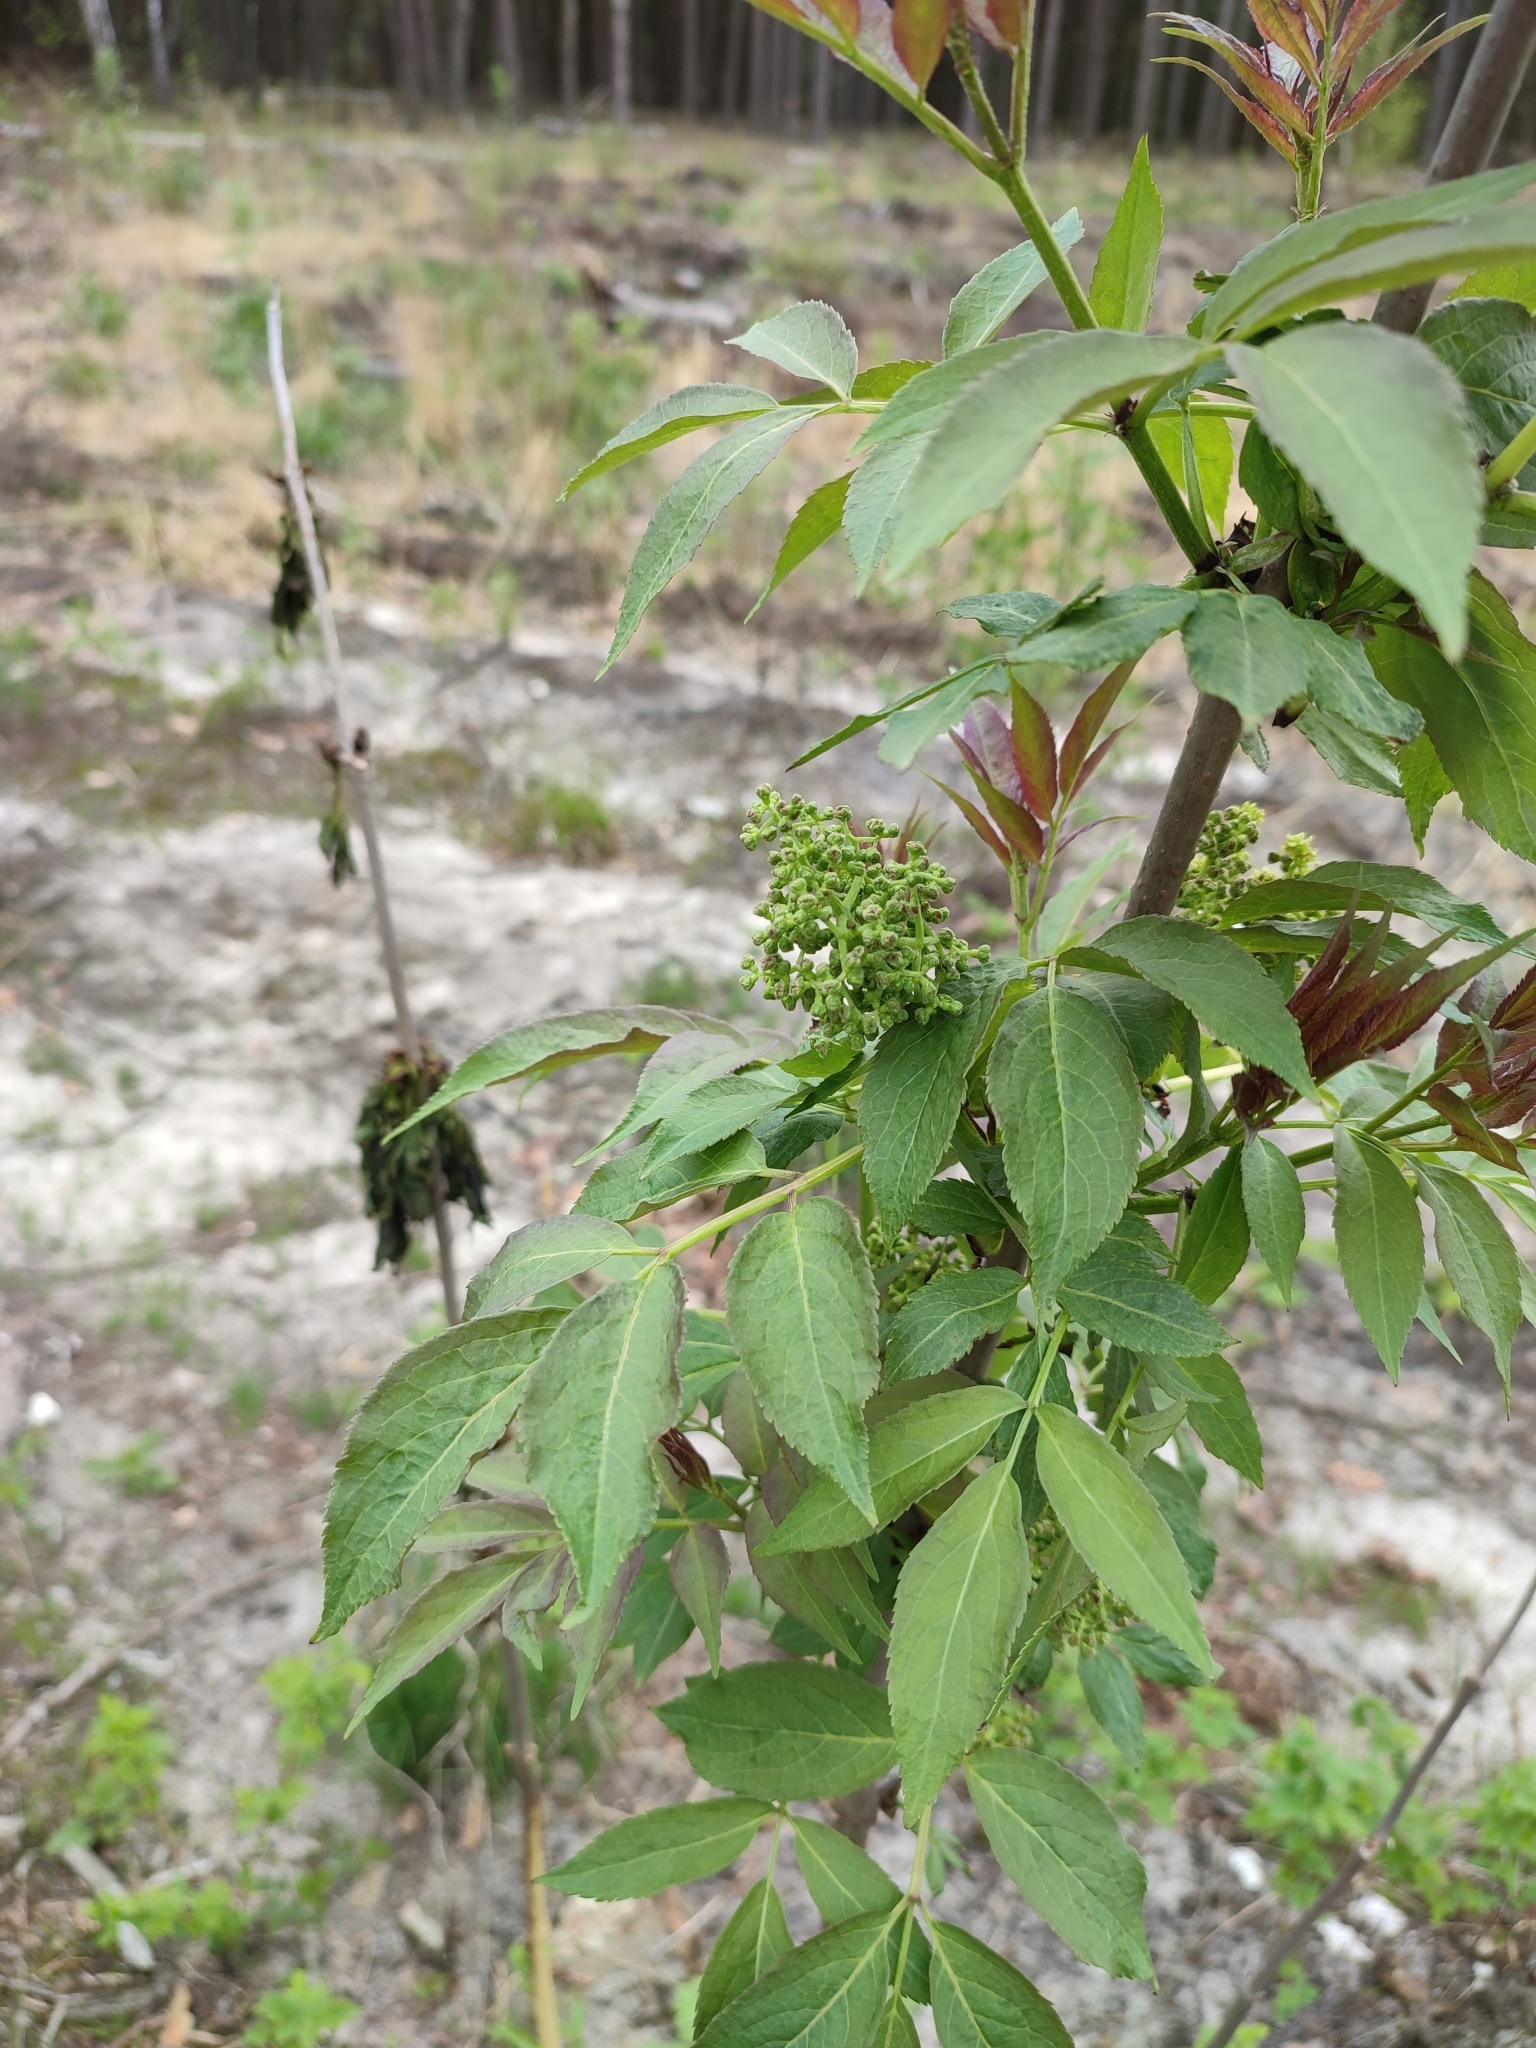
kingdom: Plantae
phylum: Tracheophyta
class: Magnoliopsida
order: Dipsacales
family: Viburnaceae
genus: Sambucus
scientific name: Sambucus racemosa
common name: Red-berried elder
